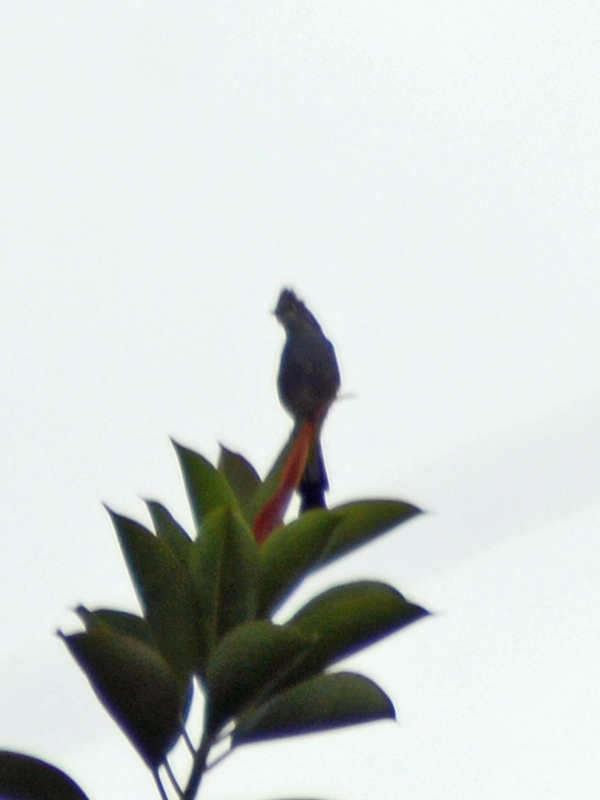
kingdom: Animalia
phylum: Chordata
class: Aves
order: Passeriformes
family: Ptilogonatidae
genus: Ptilogonys
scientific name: Ptilogonys cinereus
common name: Gray silky-flycatcher
